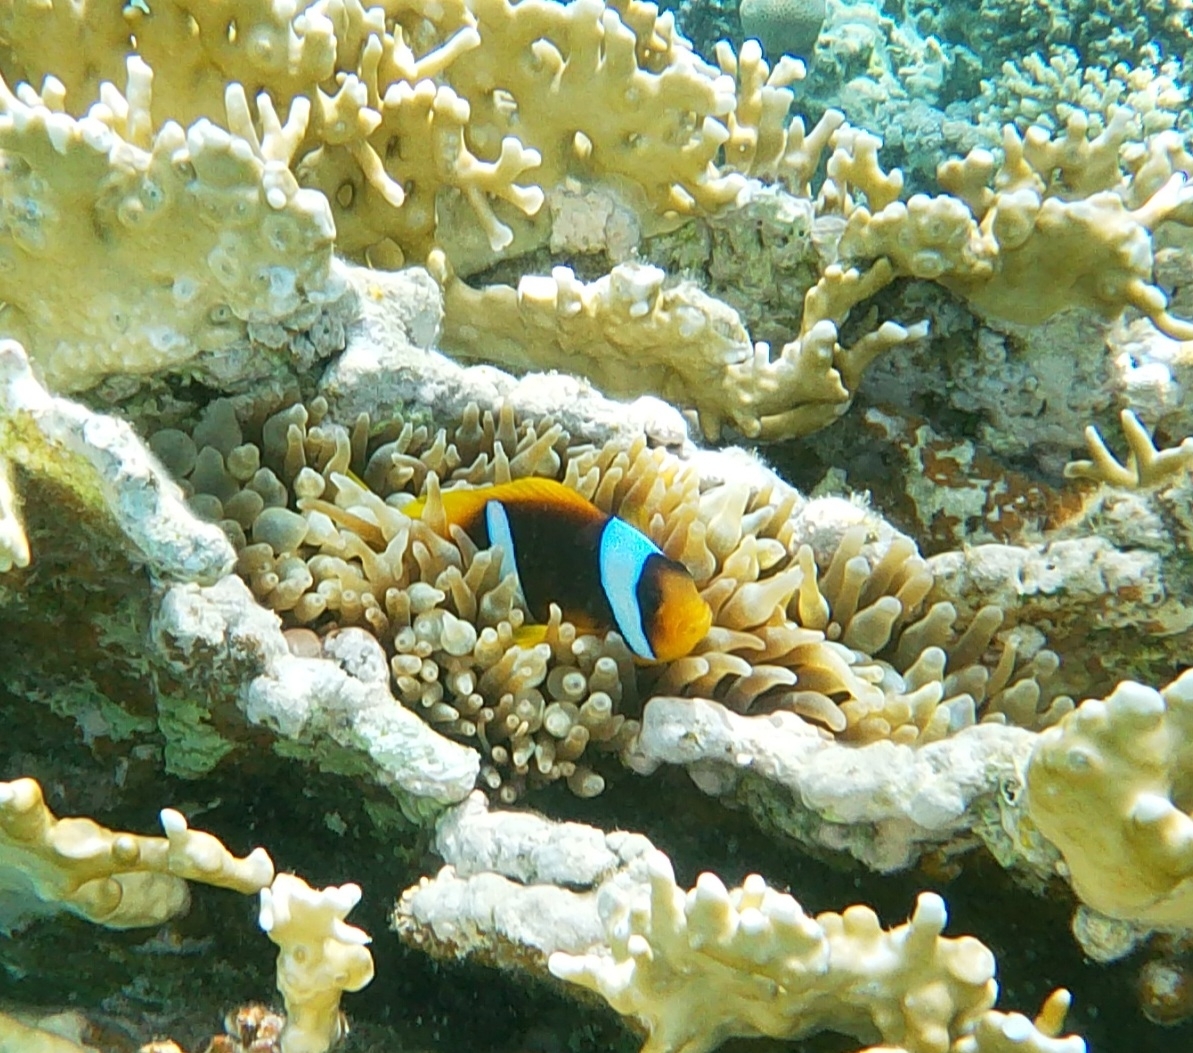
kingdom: Animalia
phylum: Chordata
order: Perciformes
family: Pomacentridae
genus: Amphiprion
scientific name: Amphiprion bicinctus
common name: Two-banded anemonefish
